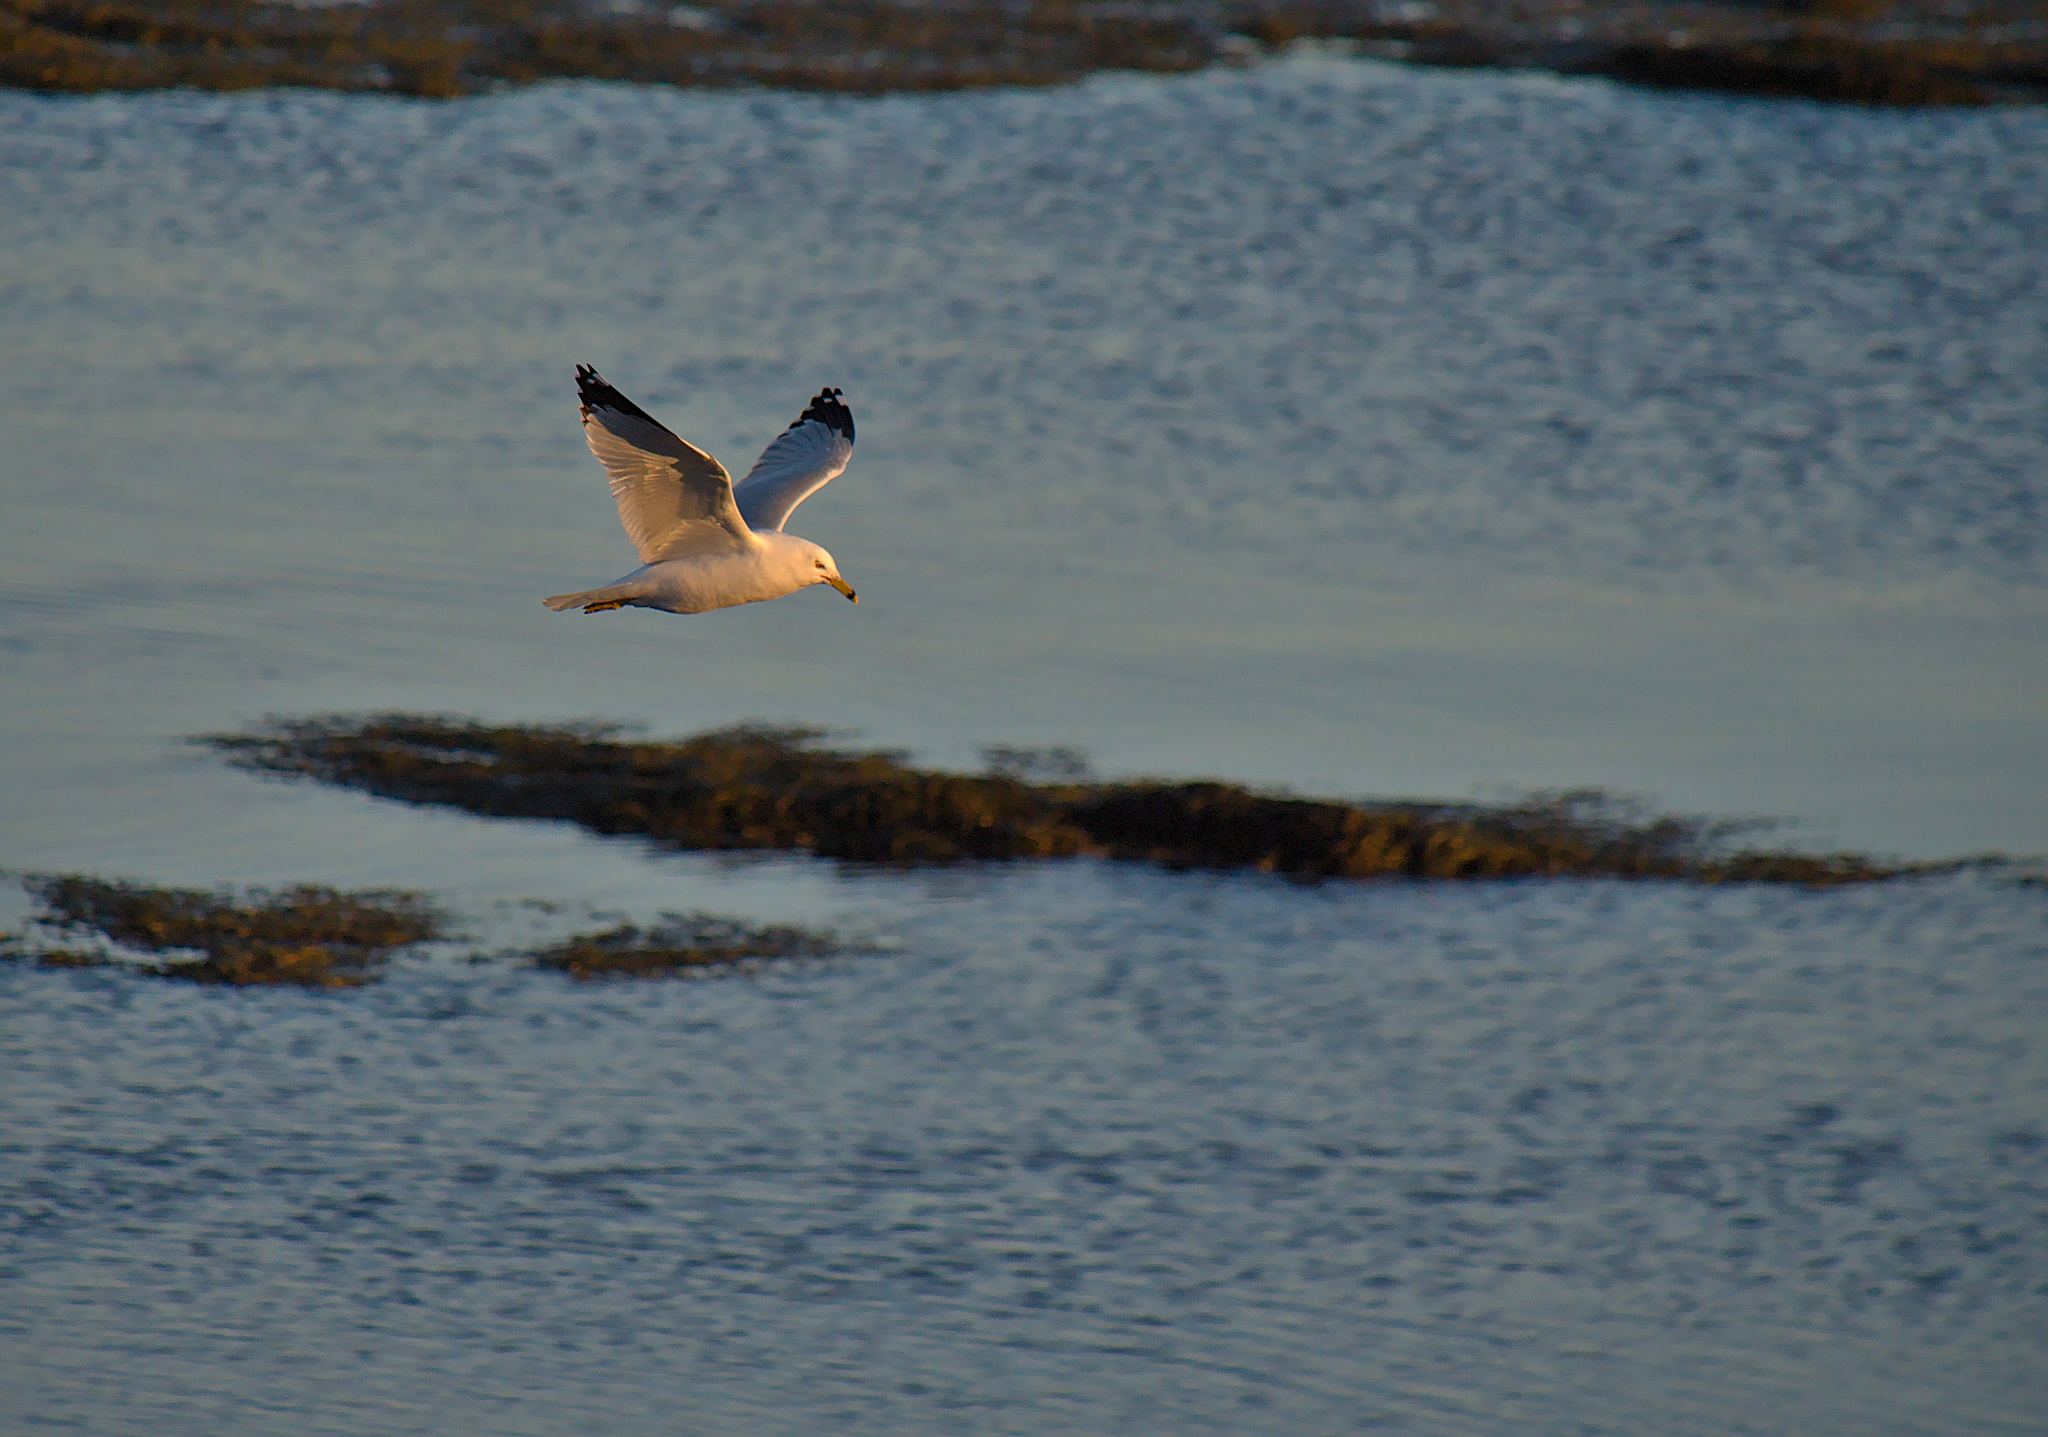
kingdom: Animalia
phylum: Chordata
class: Aves
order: Charadriiformes
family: Laridae
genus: Larus
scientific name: Larus delawarensis
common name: Ring-billed gull
